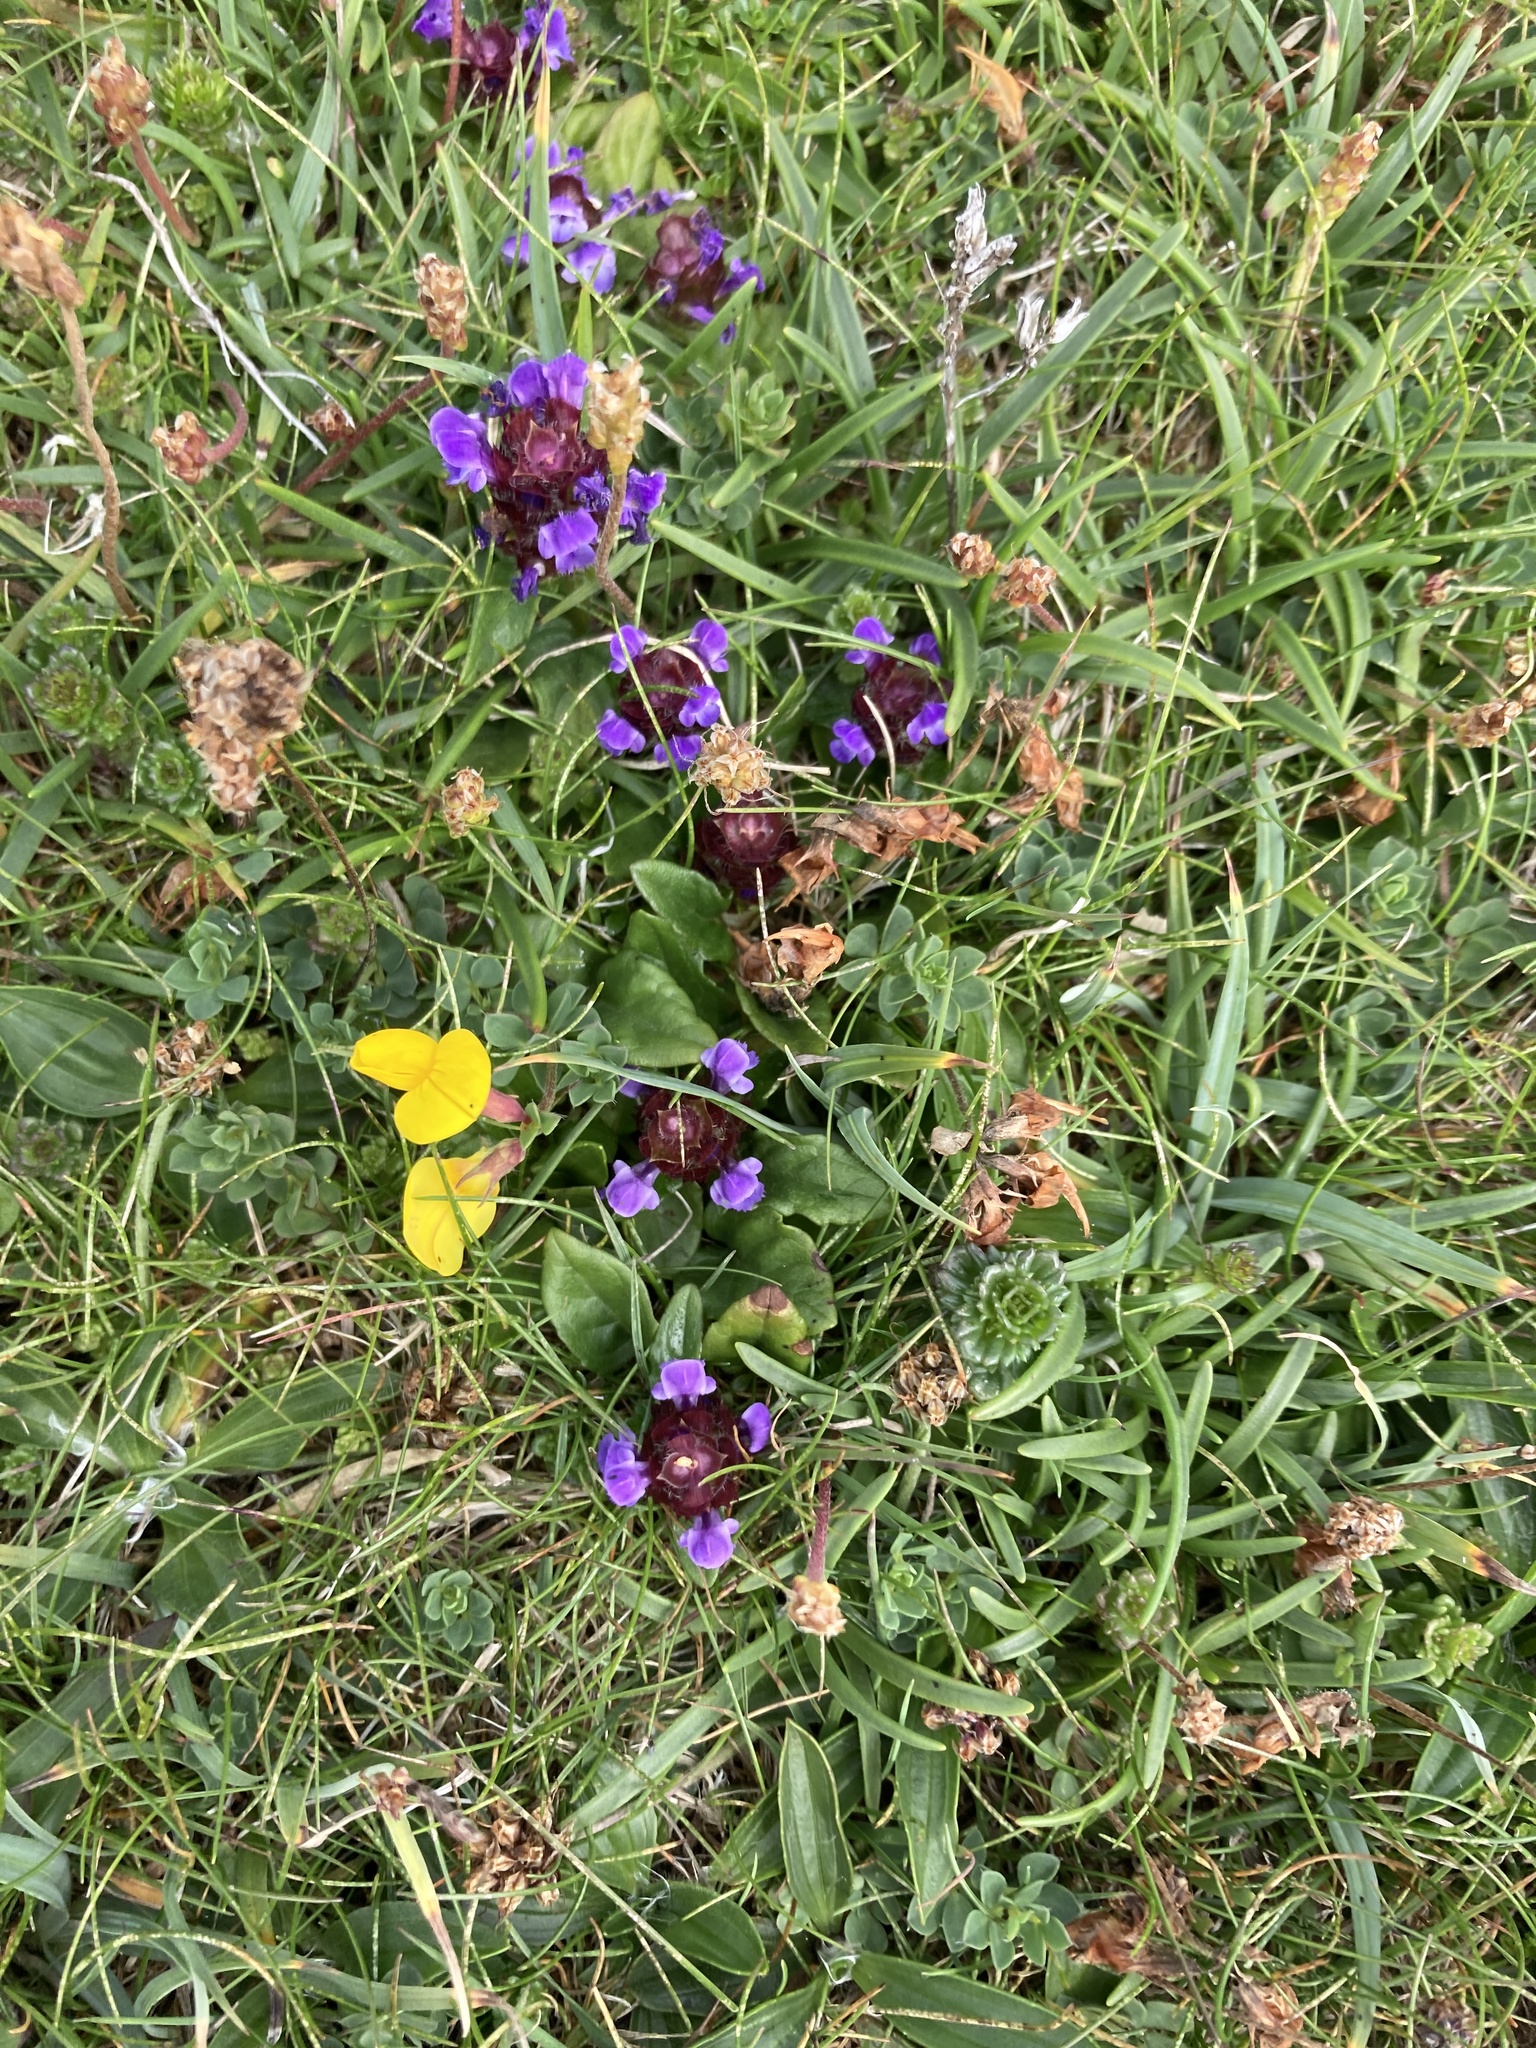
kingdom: Plantae
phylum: Tracheophyta
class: Magnoliopsida
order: Lamiales
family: Lamiaceae
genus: Prunella
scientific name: Prunella vulgaris
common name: Heal-all
